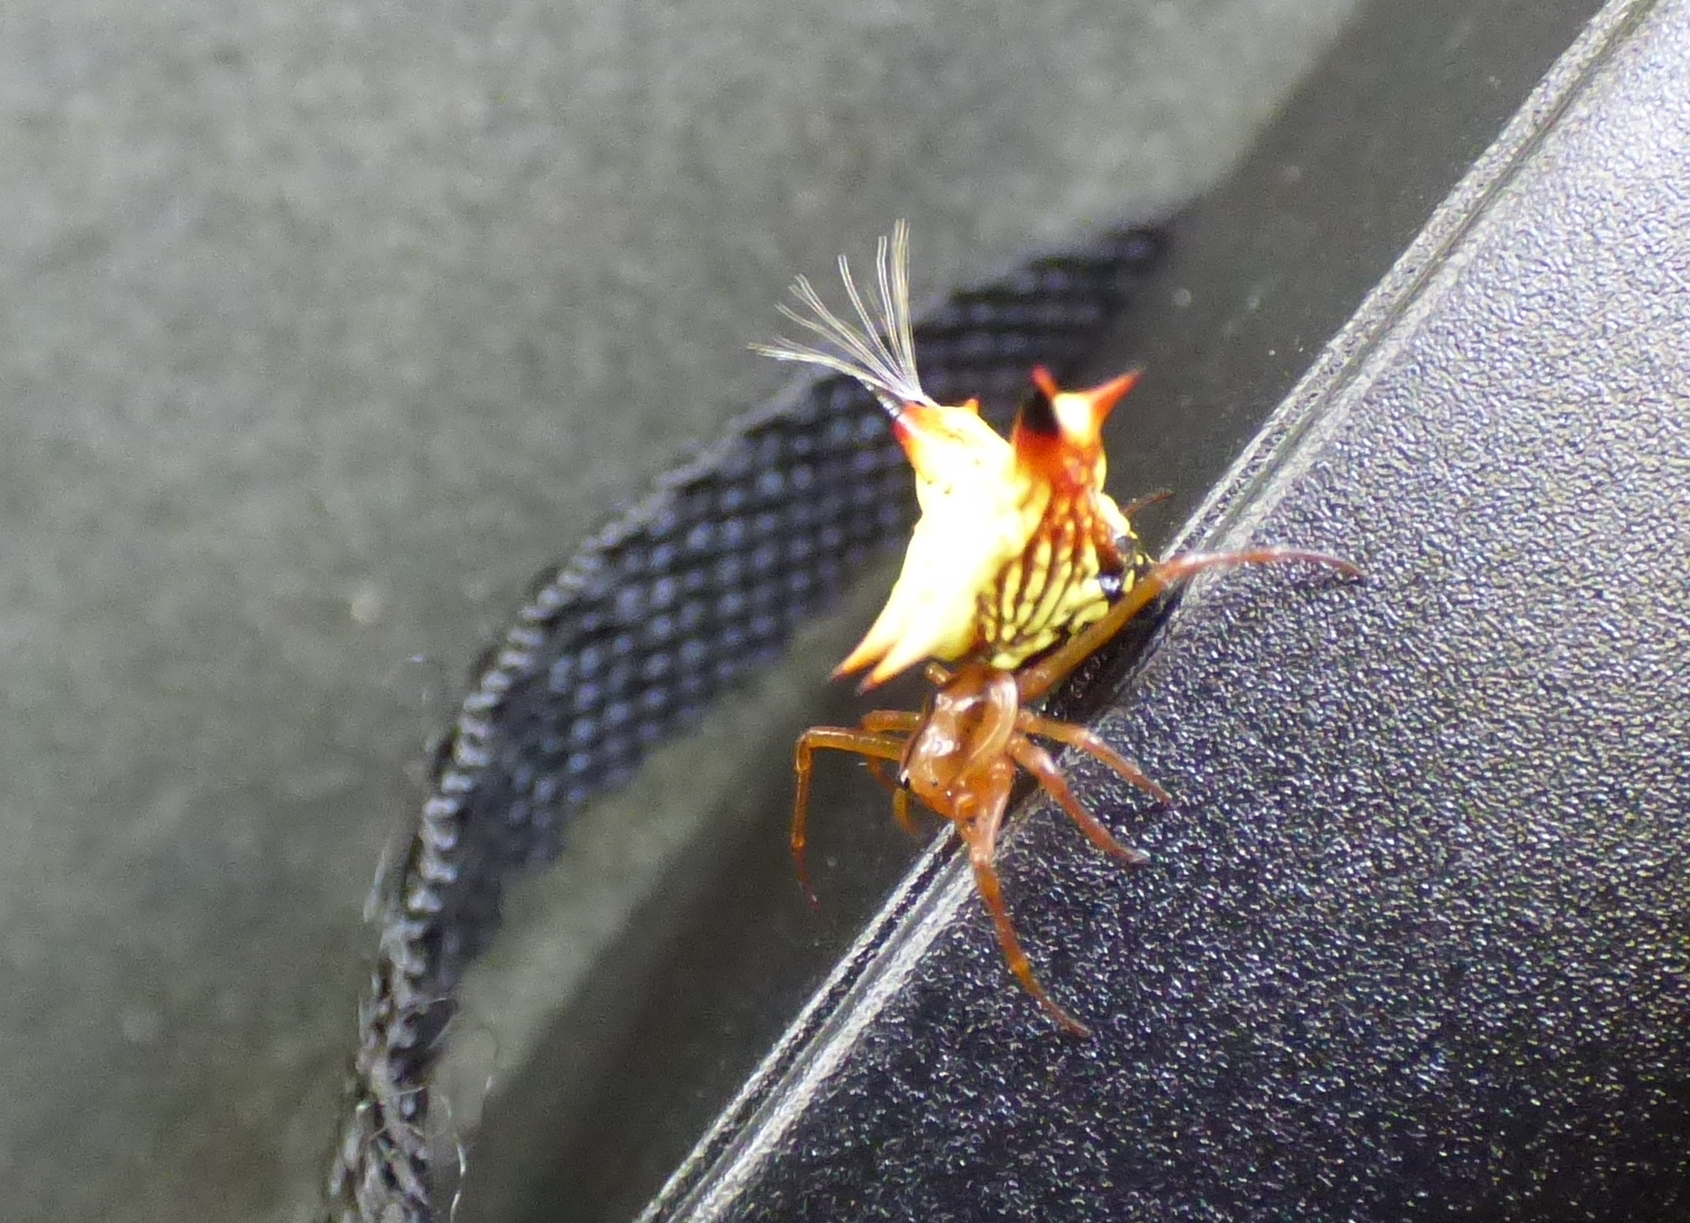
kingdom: Animalia
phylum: Arthropoda
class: Arachnida
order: Araneae
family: Araneidae
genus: Micrathena
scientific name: Micrathena furcata
